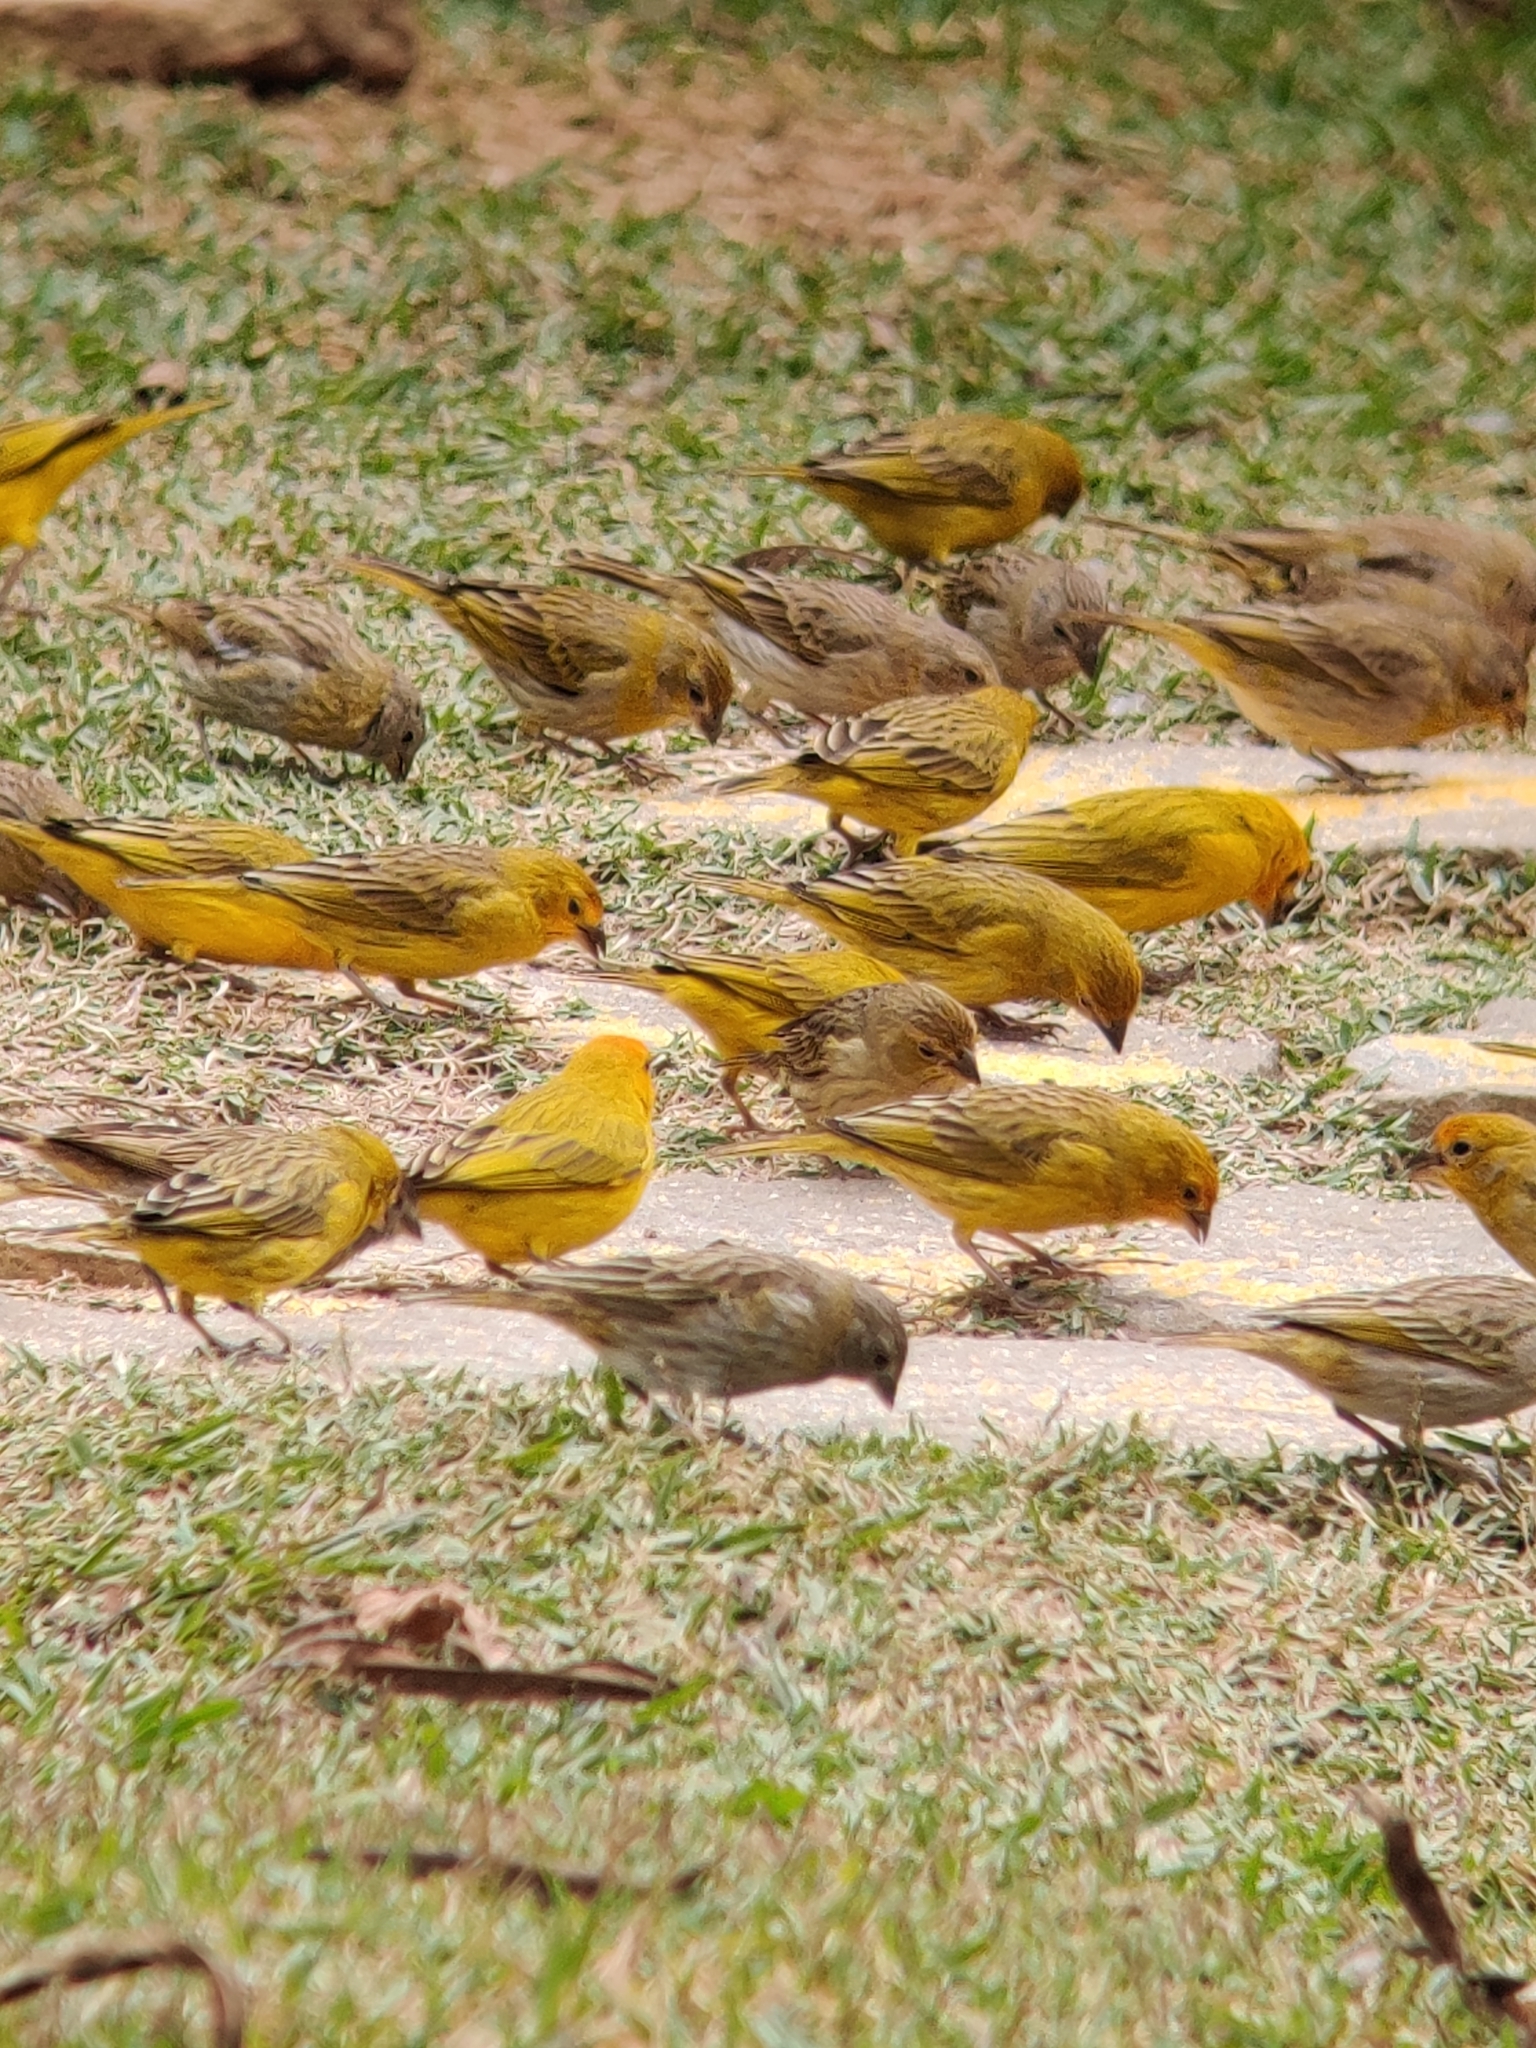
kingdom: Animalia
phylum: Chordata
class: Aves
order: Passeriformes
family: Thraupidae
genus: Sicalis
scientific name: Sicalis flaveola
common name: Saffron finch
